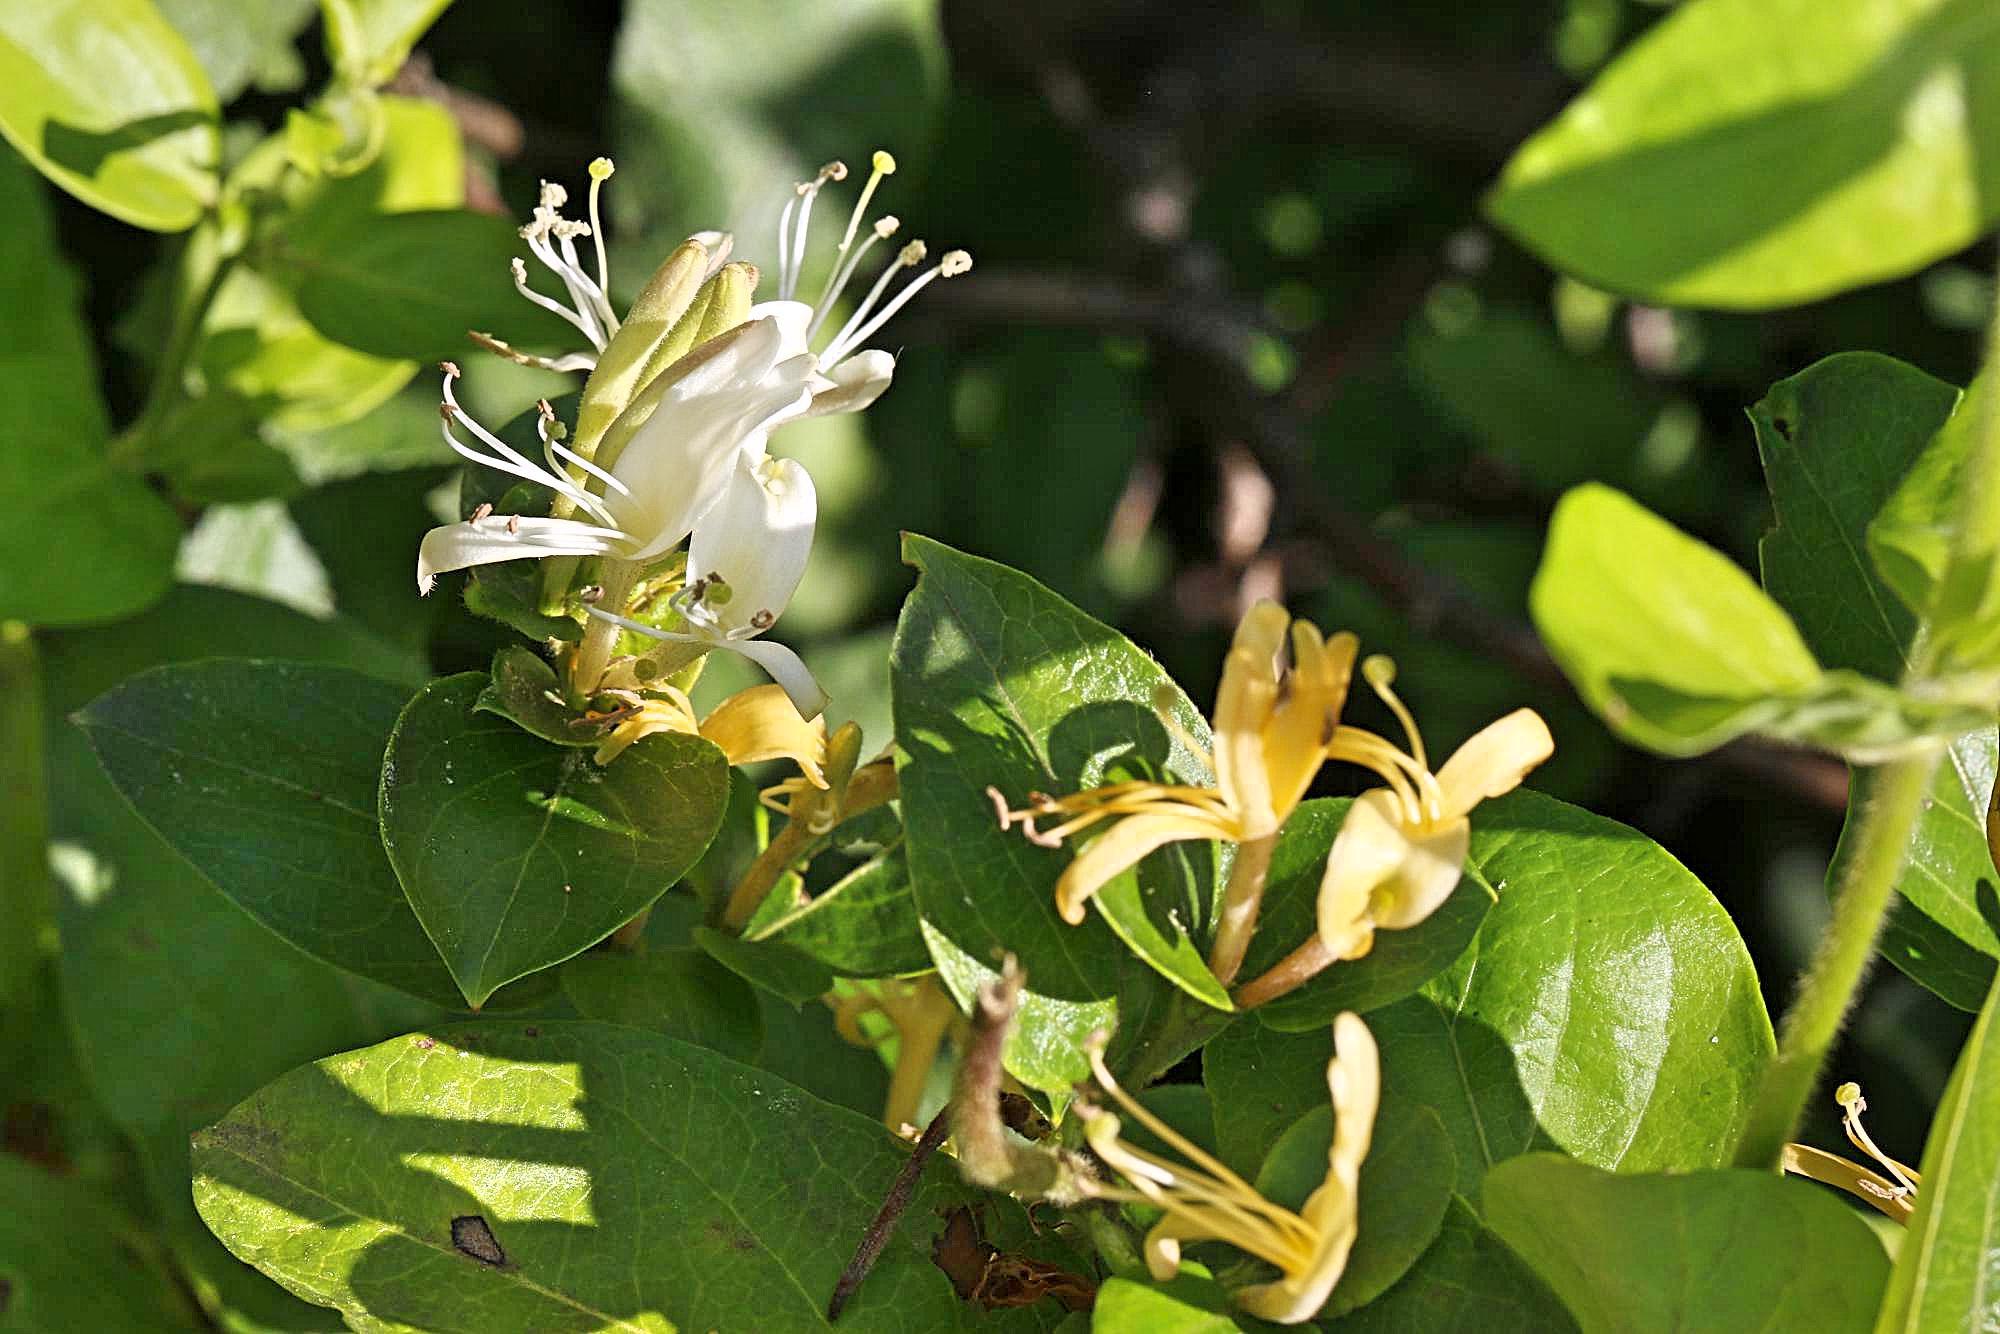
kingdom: Plantae
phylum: Tracheophyta
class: Magnoliopsida
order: Dipsacales
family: Caprifoliaceae
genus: Lonicera
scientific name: Lonicera japonica
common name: Japanese honeysuckle
